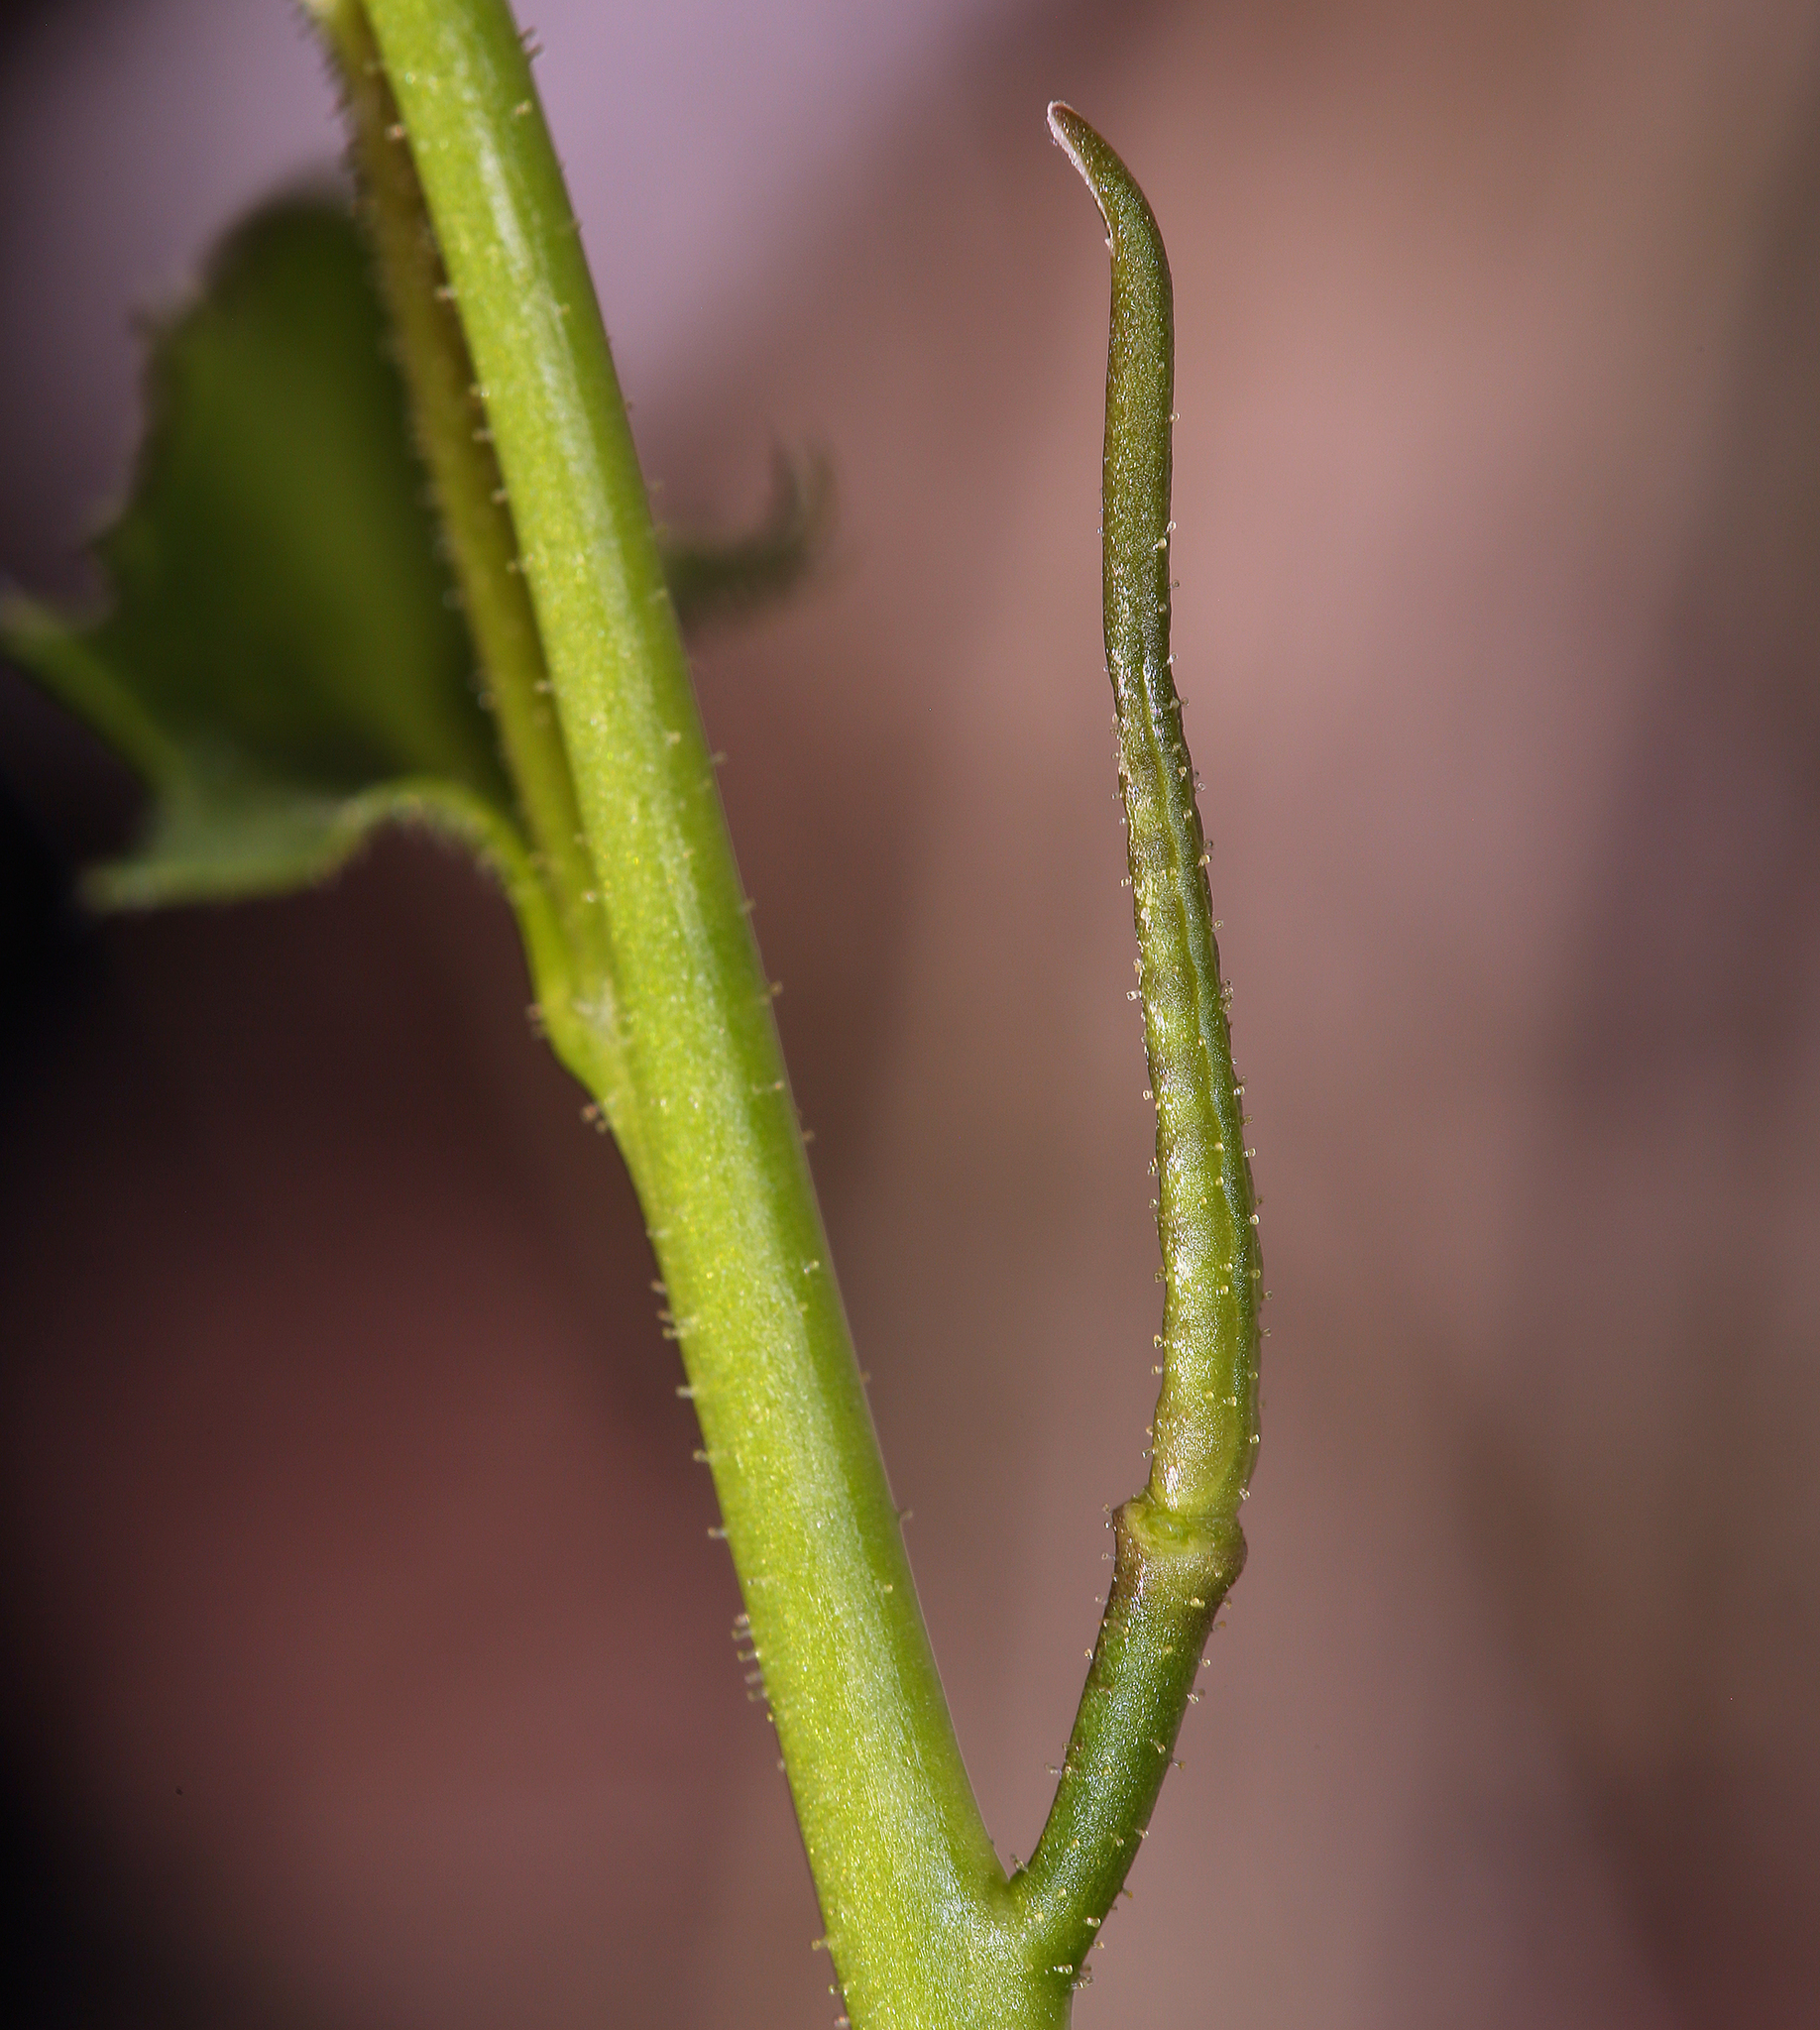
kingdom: Plantae
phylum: Tracheophyta
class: Magnoliopsida
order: Brassicales
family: Brassicaceae
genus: Chorispora
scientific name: Chorispora tenella
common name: Crossflower
